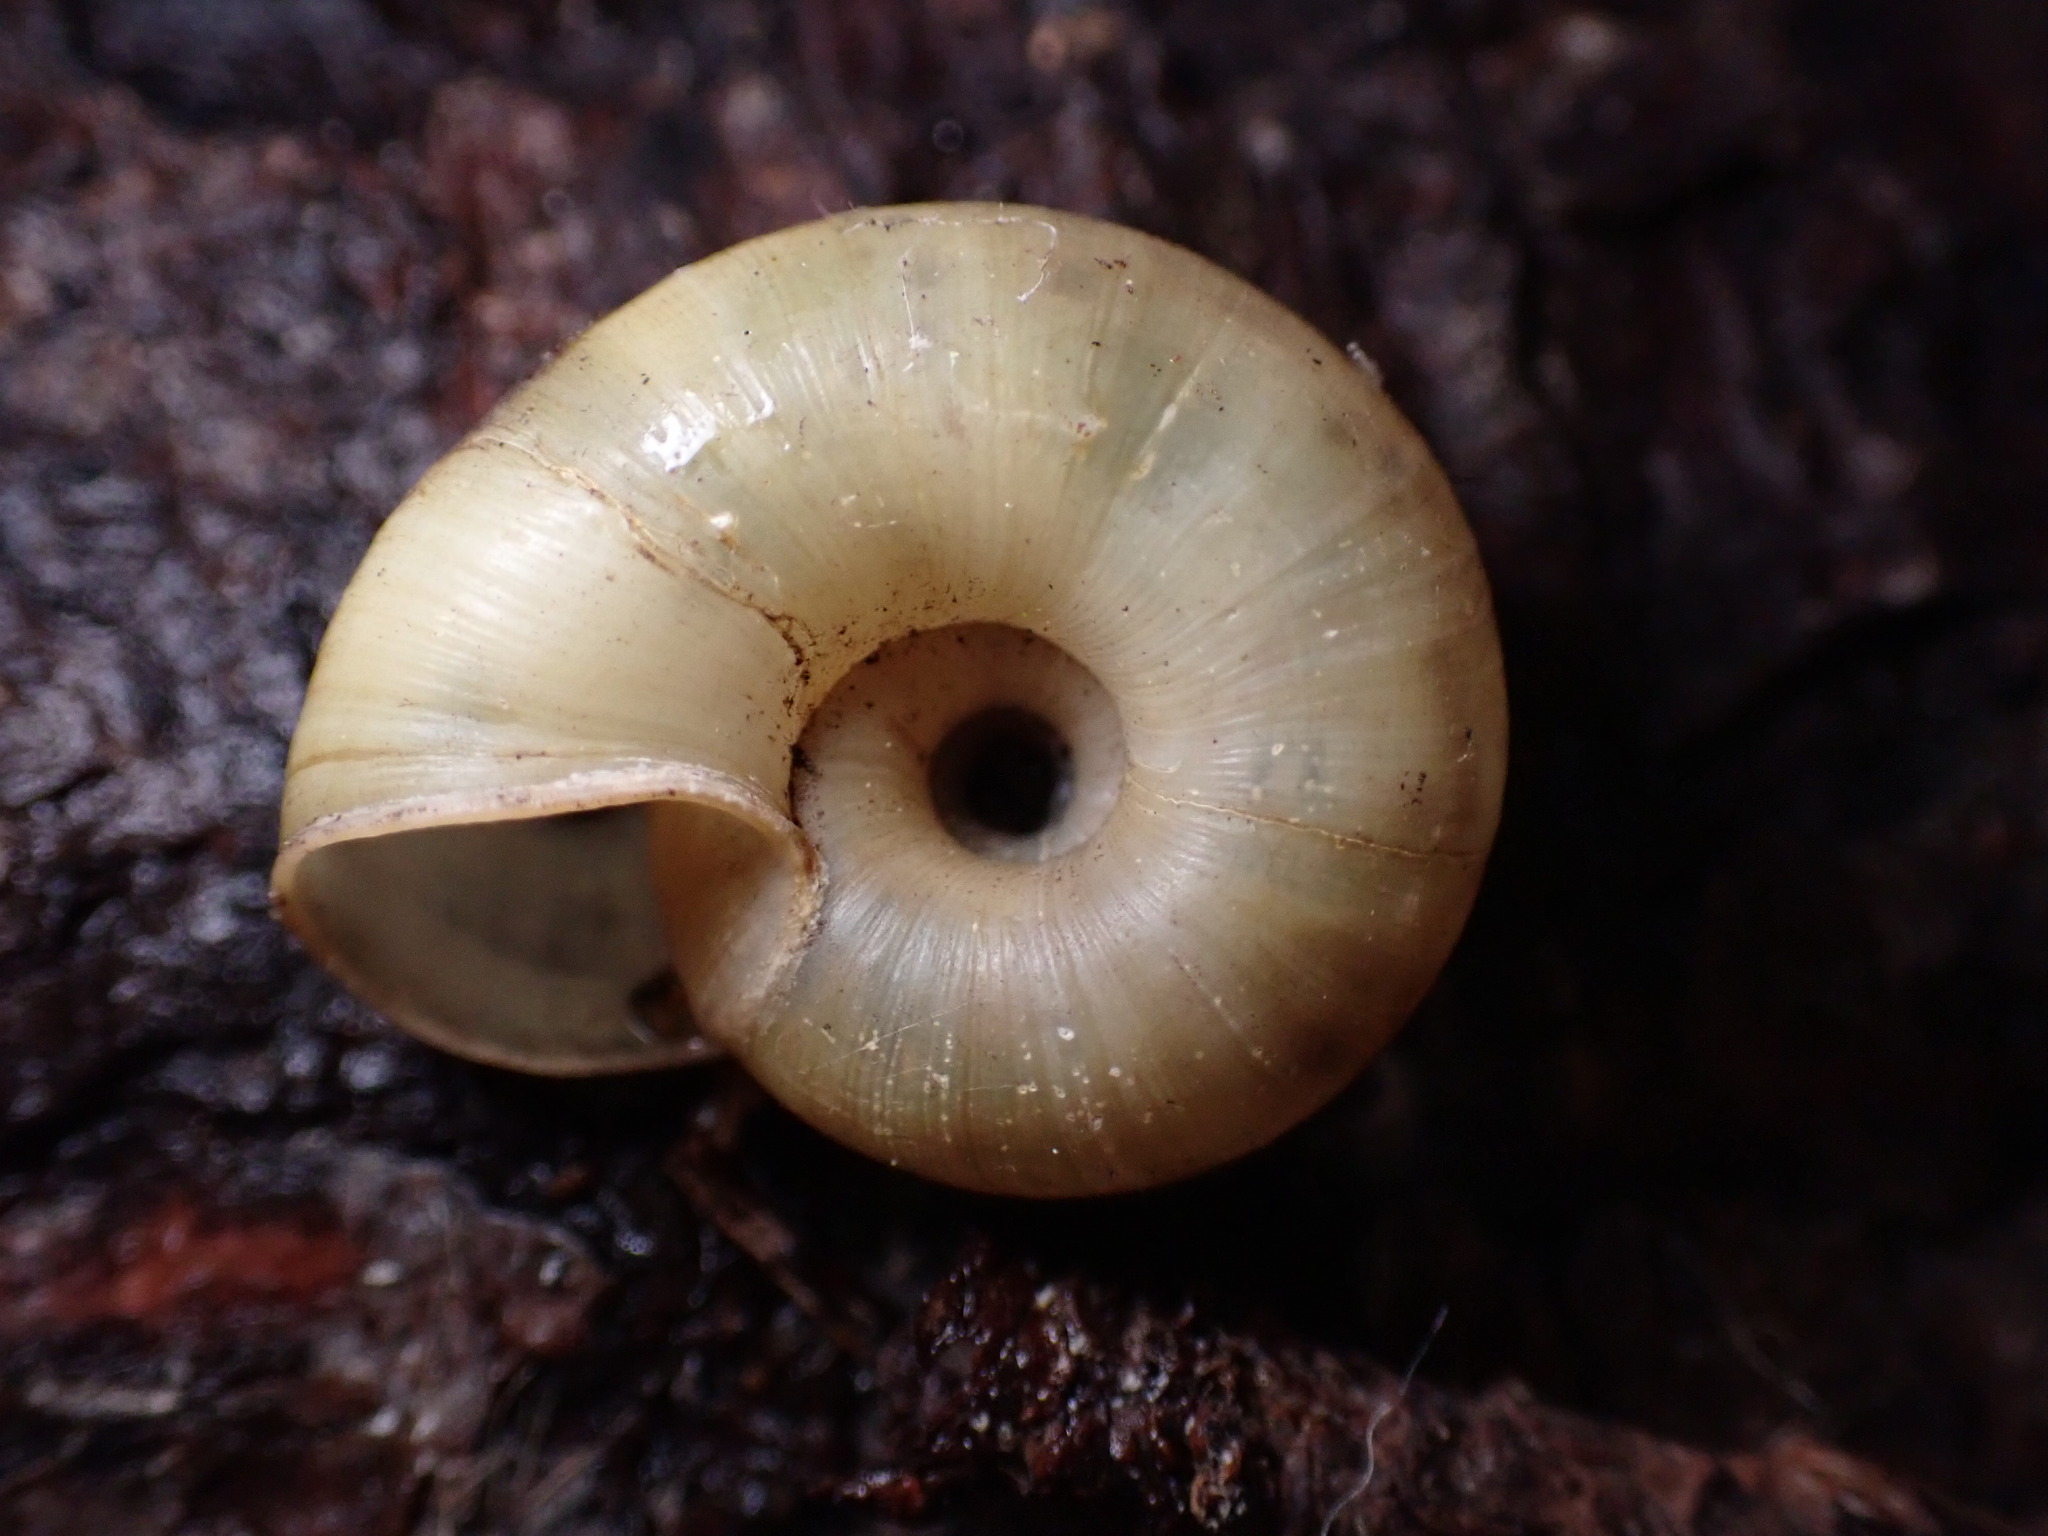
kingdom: Animalia
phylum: Mollusca
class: Gastropoda
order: Stylommatophora
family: Haplotrematidae
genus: Haplotrema
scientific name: Haplotrema minimum
